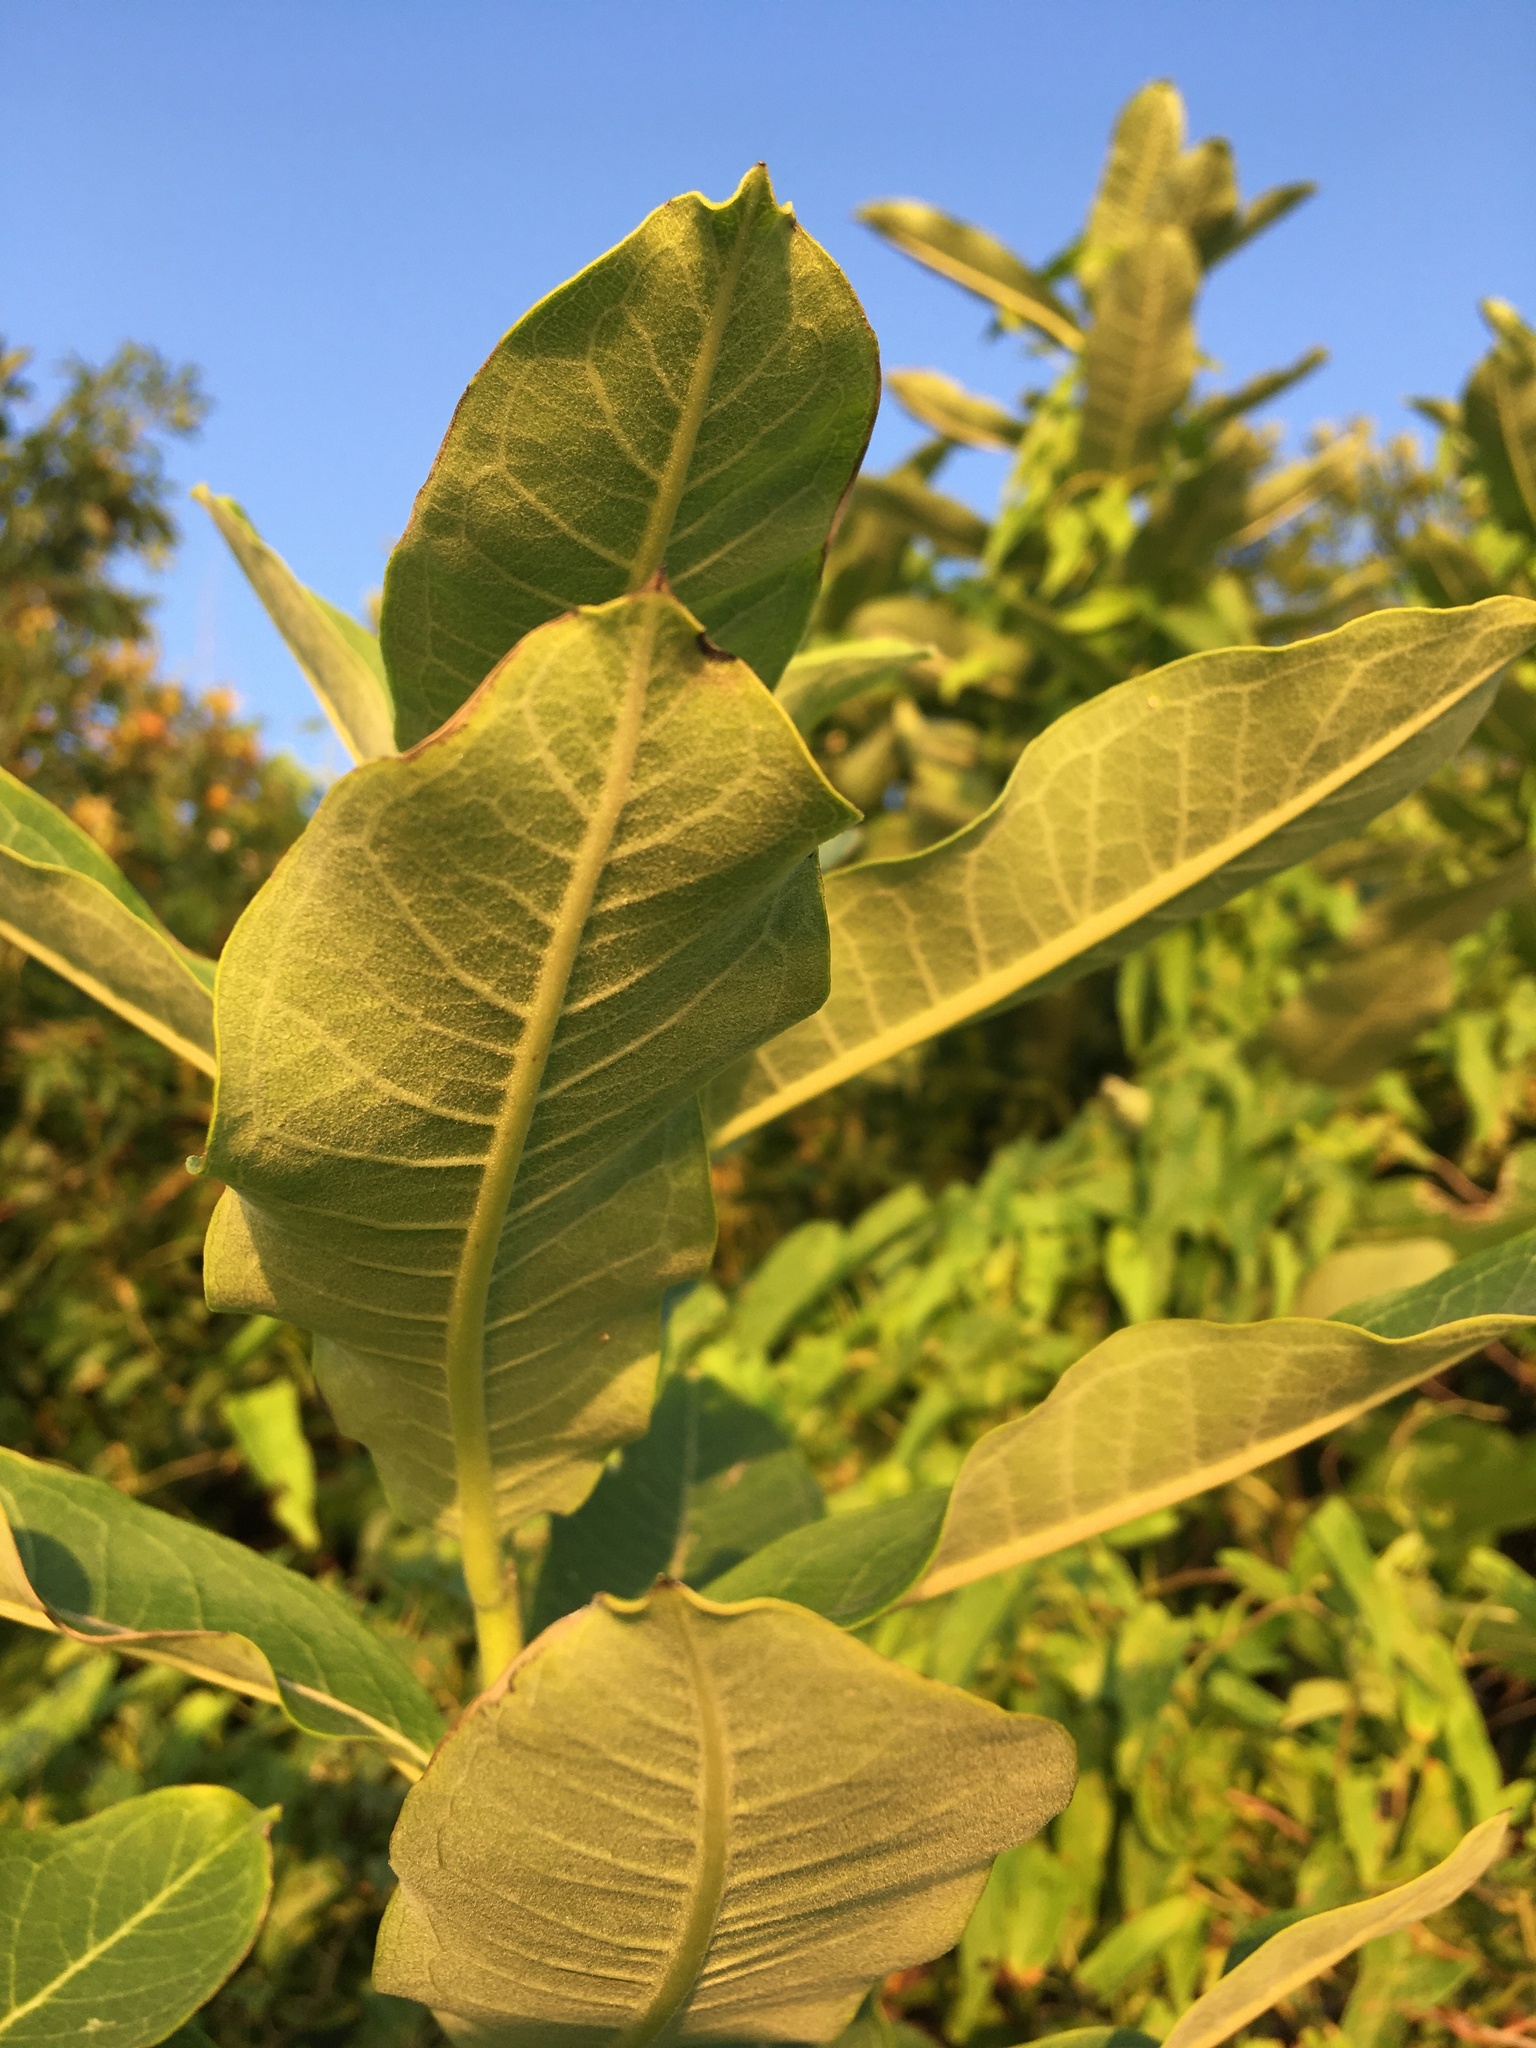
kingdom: Plantae
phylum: Tracheophyta
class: Magnoliopsida
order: Gentianales
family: Apocynaceae
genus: Asclepias
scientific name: Asclepias syriaca
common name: Common milkweed
